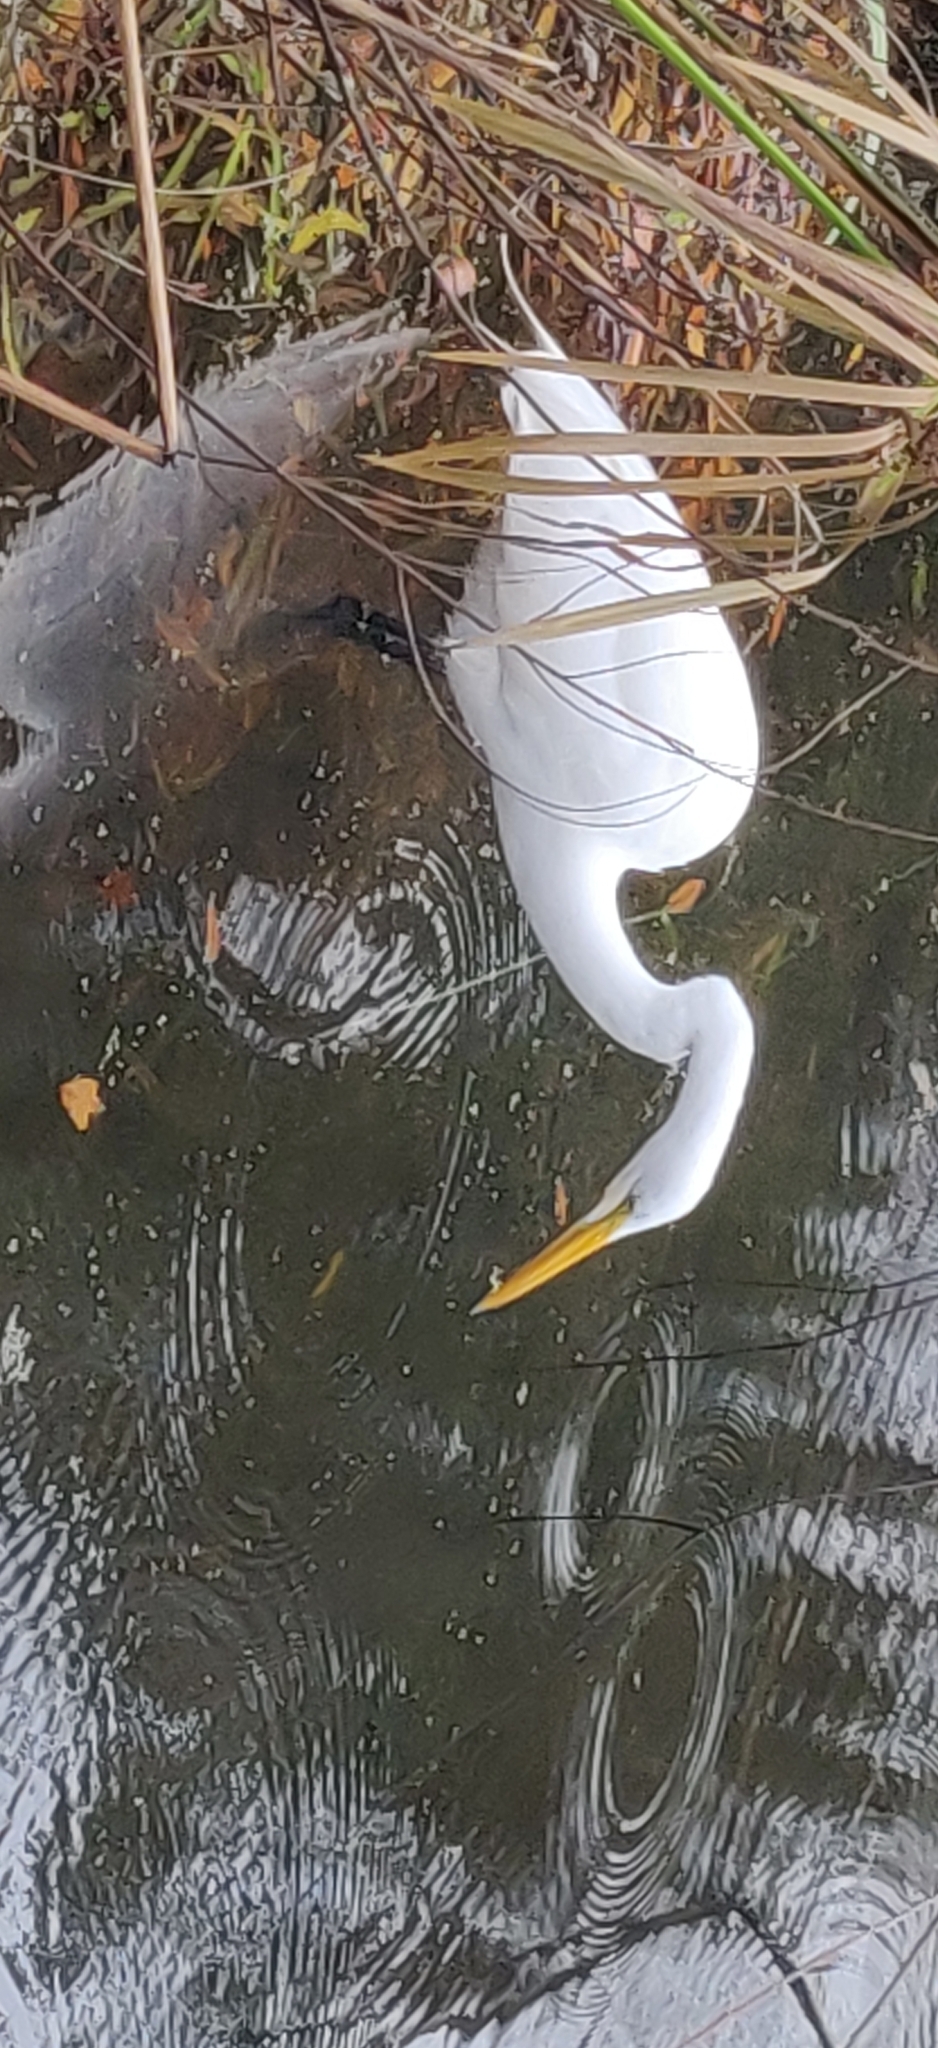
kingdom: Animalia
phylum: Chordata
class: Aves
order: Pelecaniformes
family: Ardeidae
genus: Ardea
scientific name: Ardea alba
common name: Great egret
